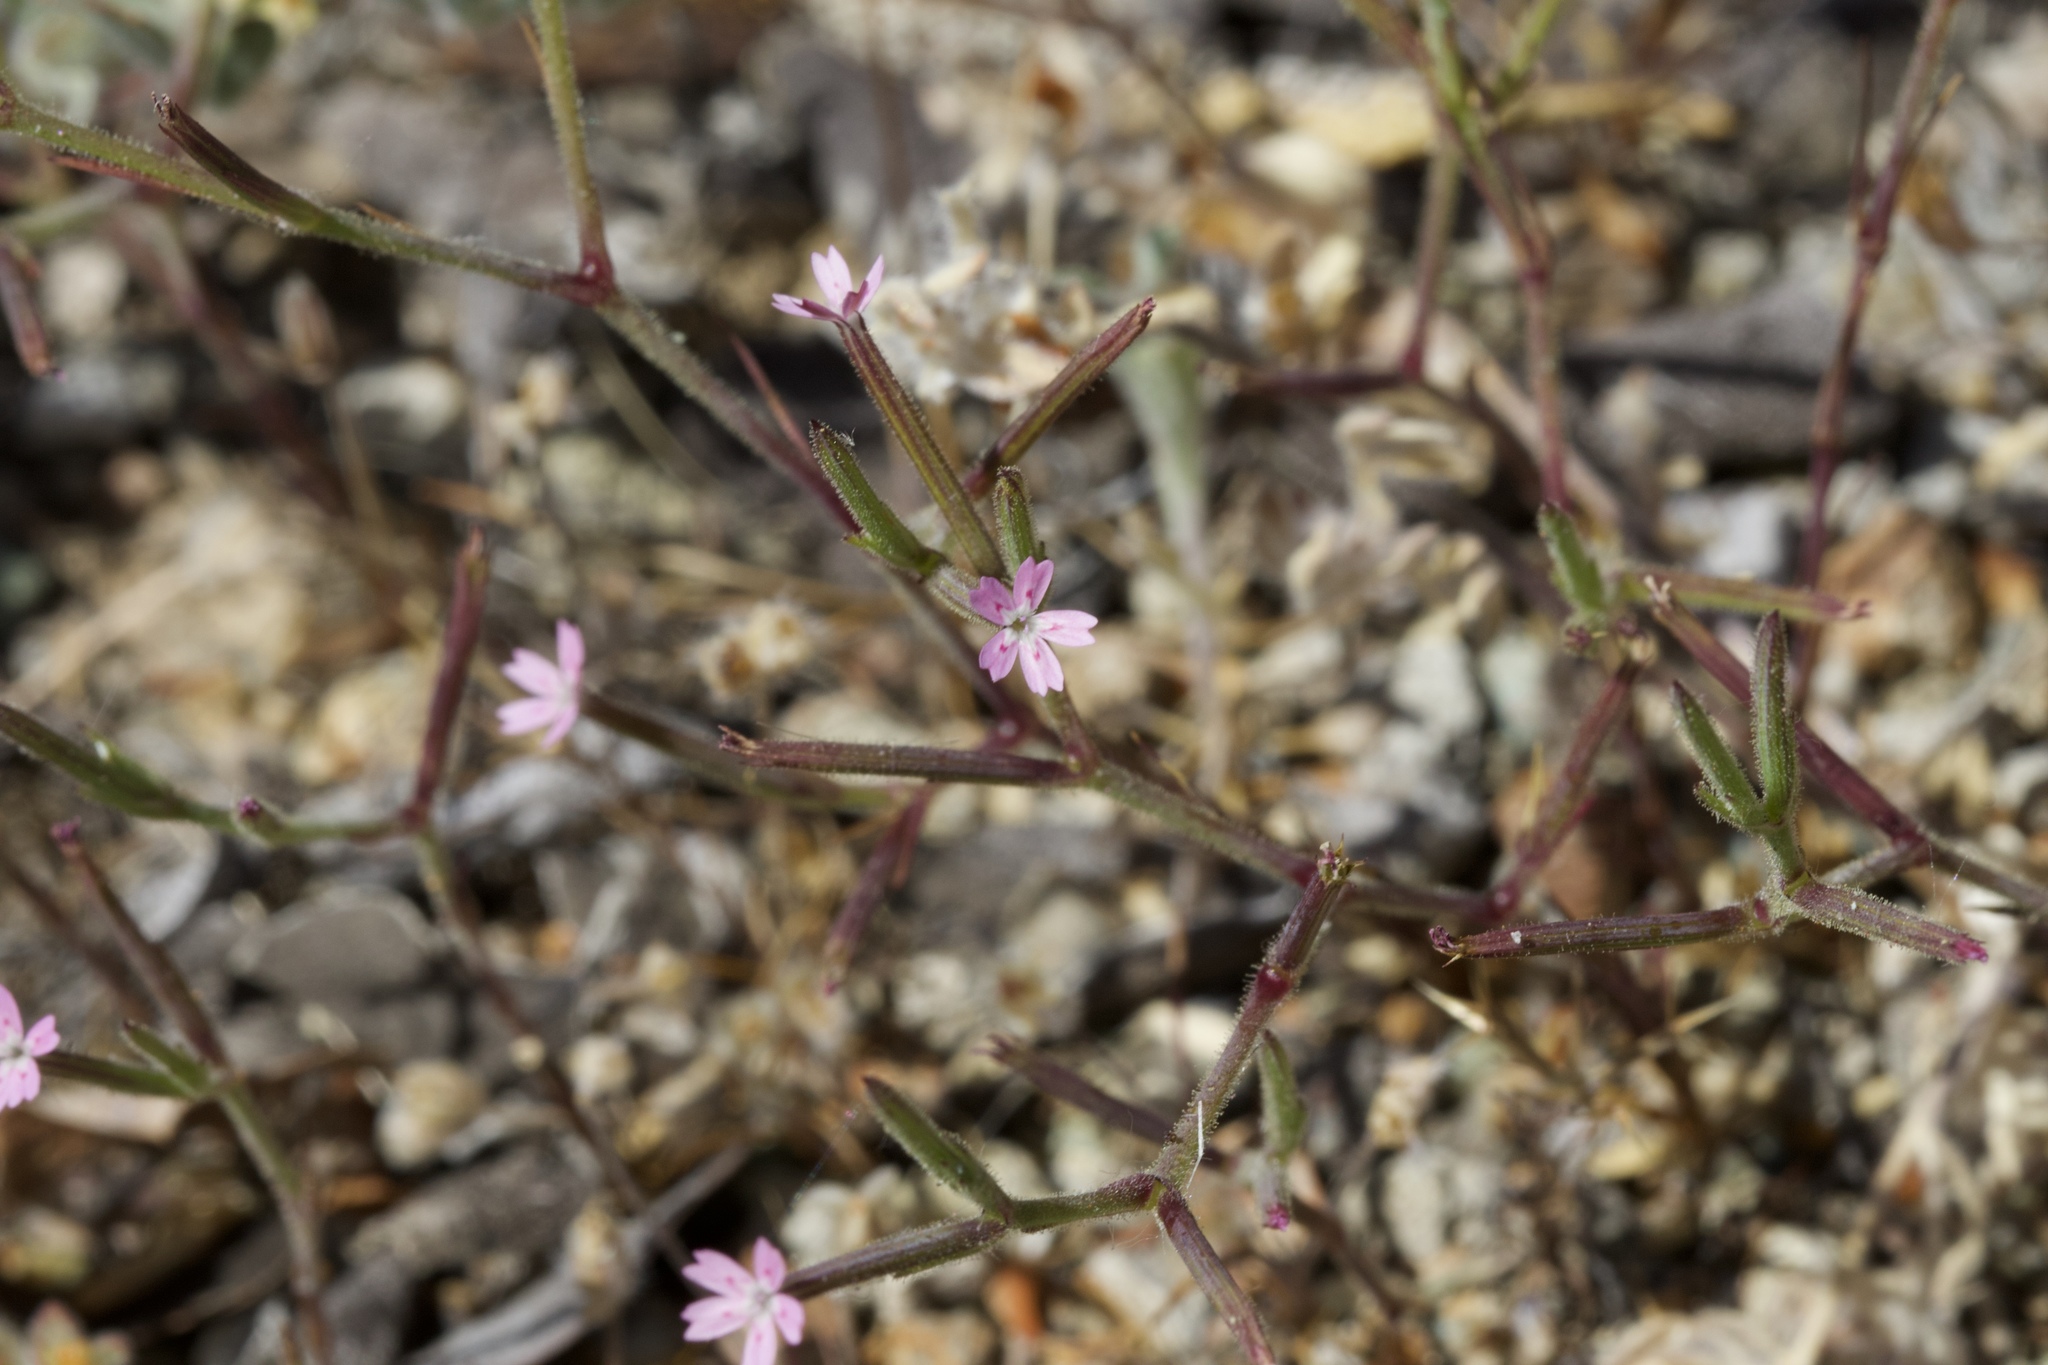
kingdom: Plantae
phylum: Tracheophyta
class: Magnoliopsida
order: Caryophyllales
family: Caryophyllaceae
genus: Dianthus
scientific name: Dianthus nudiflorus
